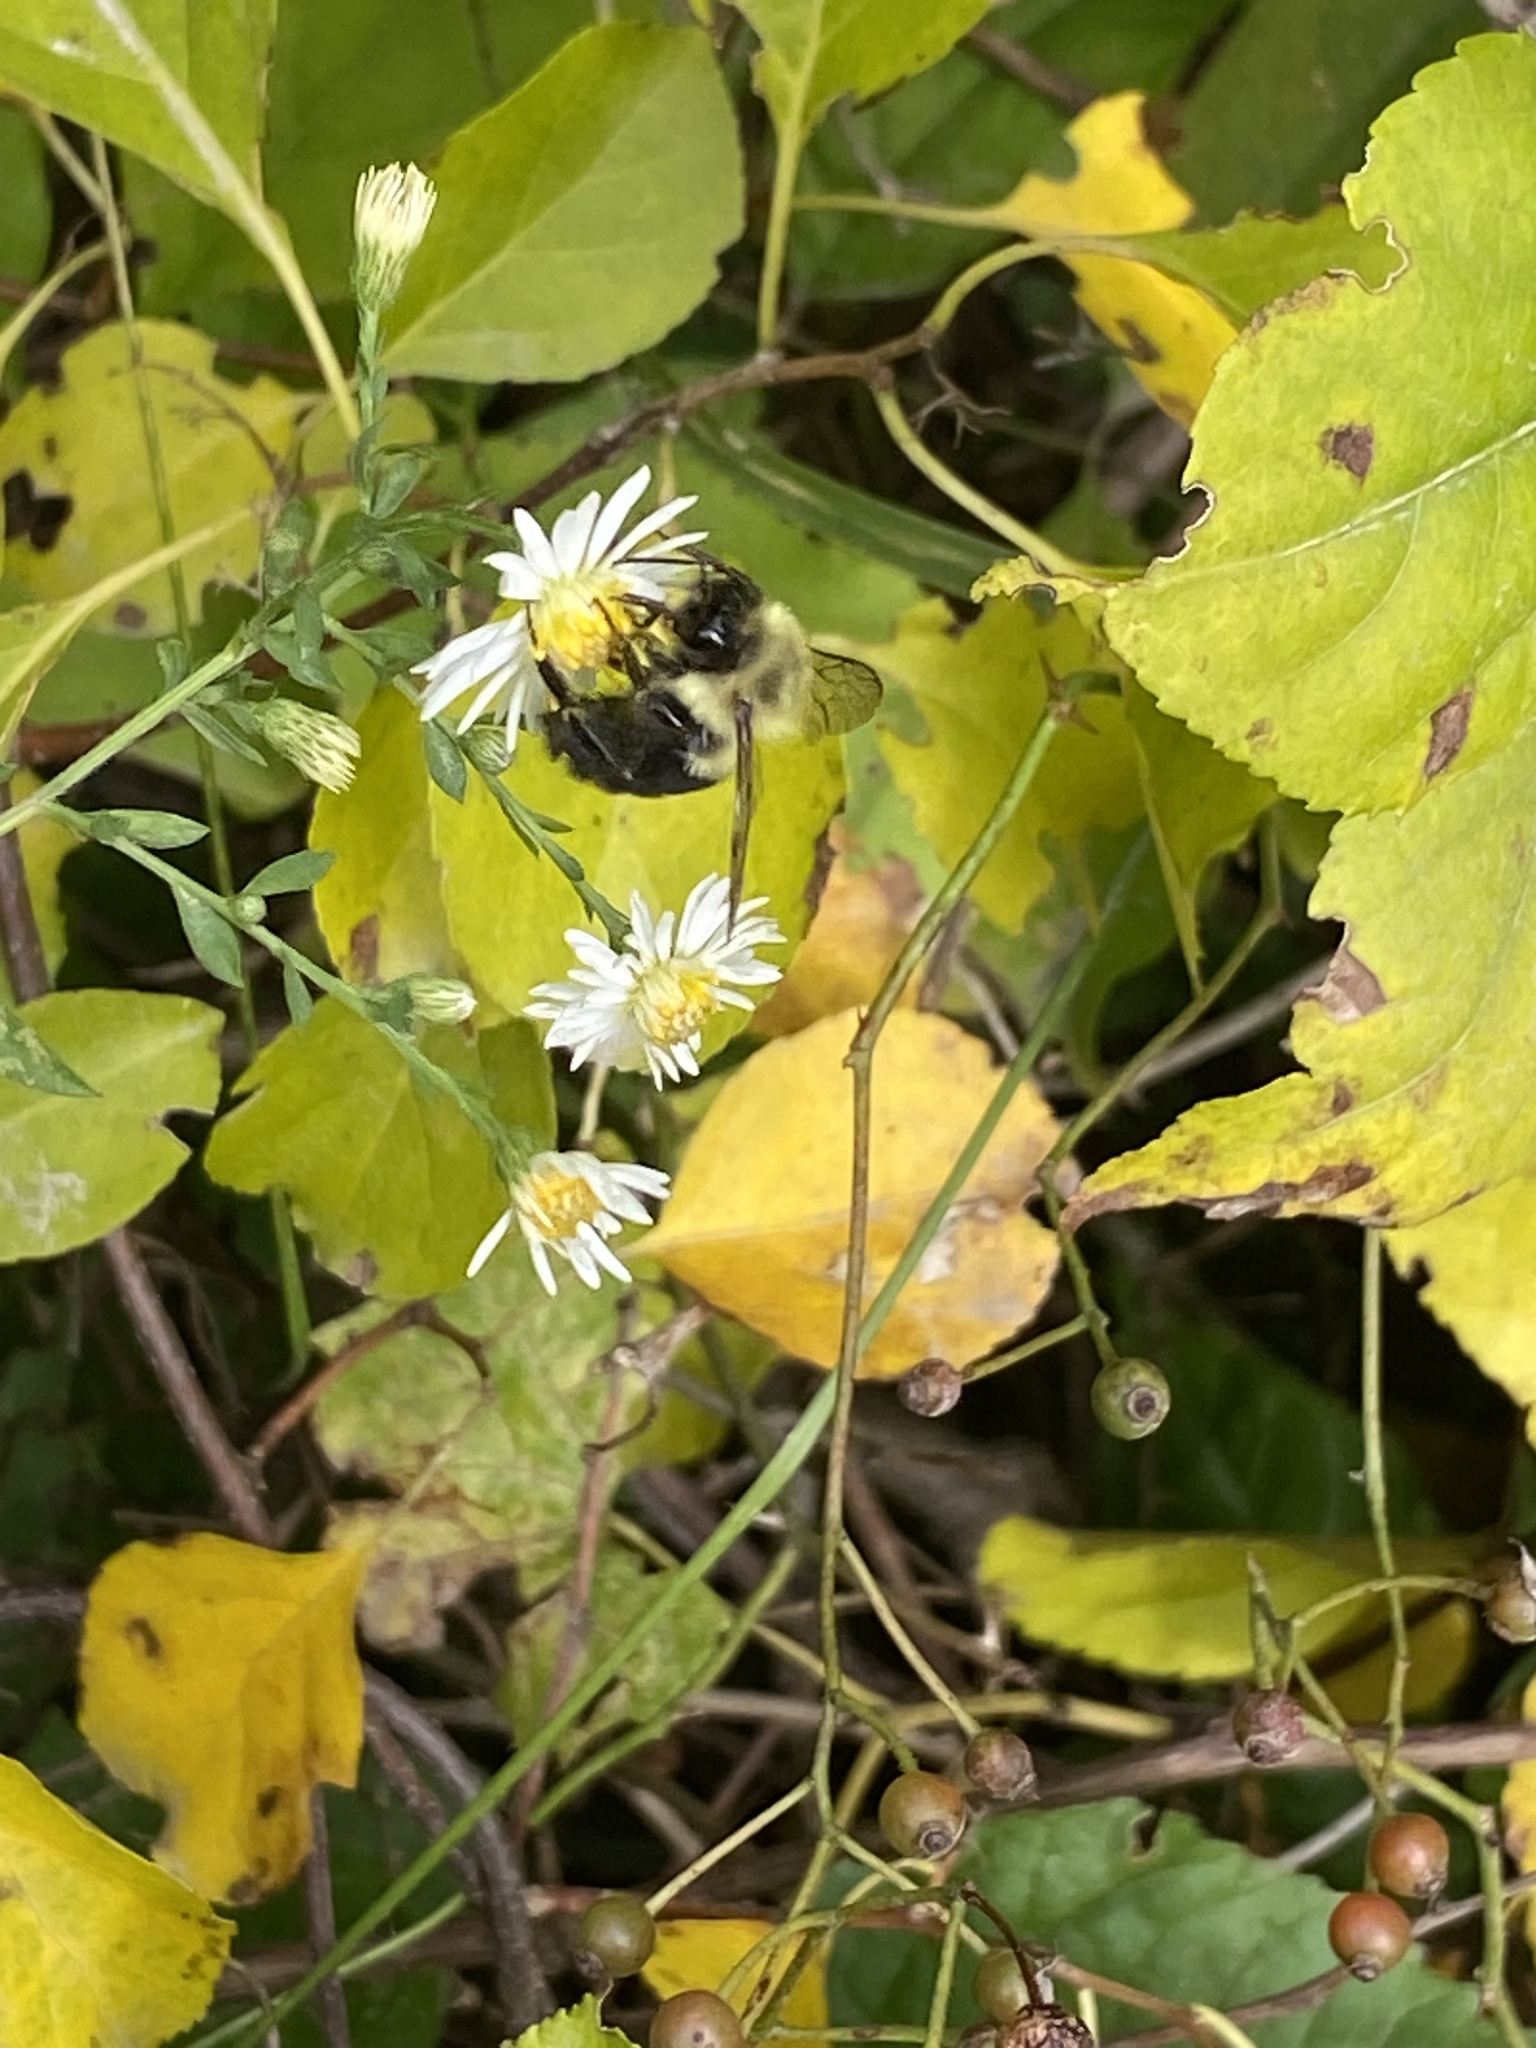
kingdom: Animalia
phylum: Arthropoda
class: Insecta
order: Hymenoptera
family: Apidae
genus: Bombus
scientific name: Bombus impatiens
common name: Common eastern bumble bee
